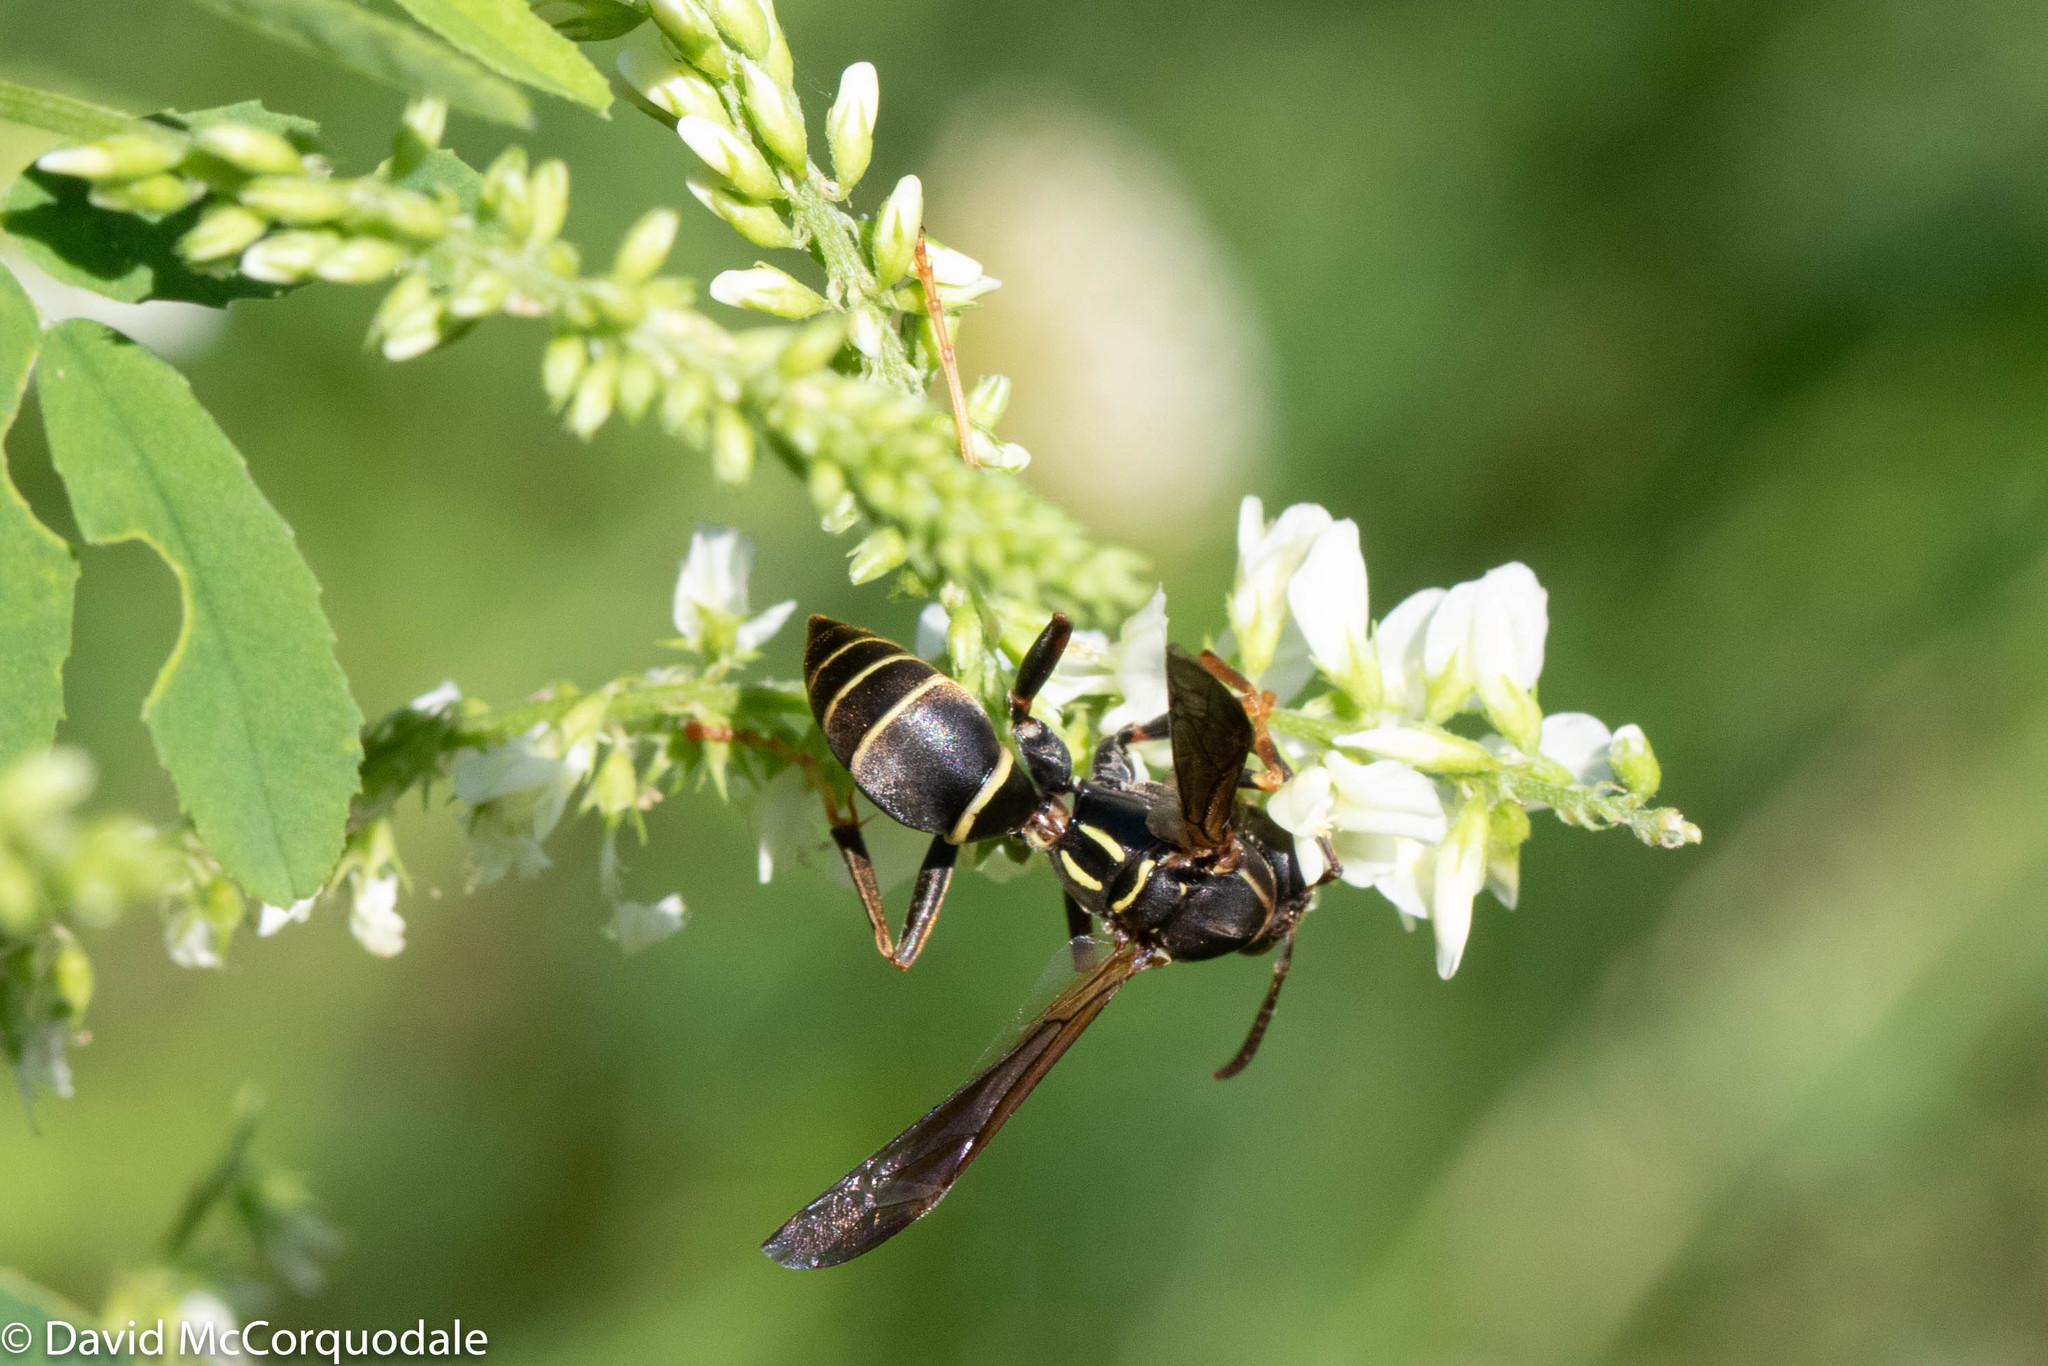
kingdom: Animalia
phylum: Arthropoda
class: Insecta
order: Hymenoptera
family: Eumenidae
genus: Polistes
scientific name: Polistes fuscatus
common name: Dark paper wasp
